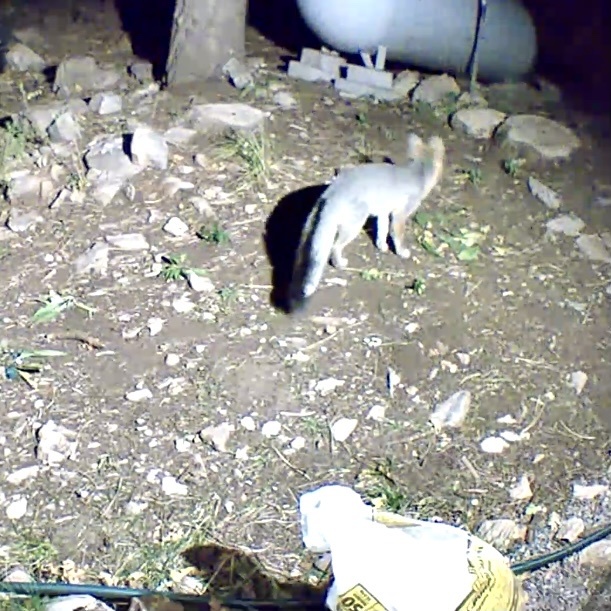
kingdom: Animalia
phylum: Chordata
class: Mammalia
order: Carnivora
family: Canidae
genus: Urocyon
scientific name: Urocyon cinereoargenteus
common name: Gray fox
